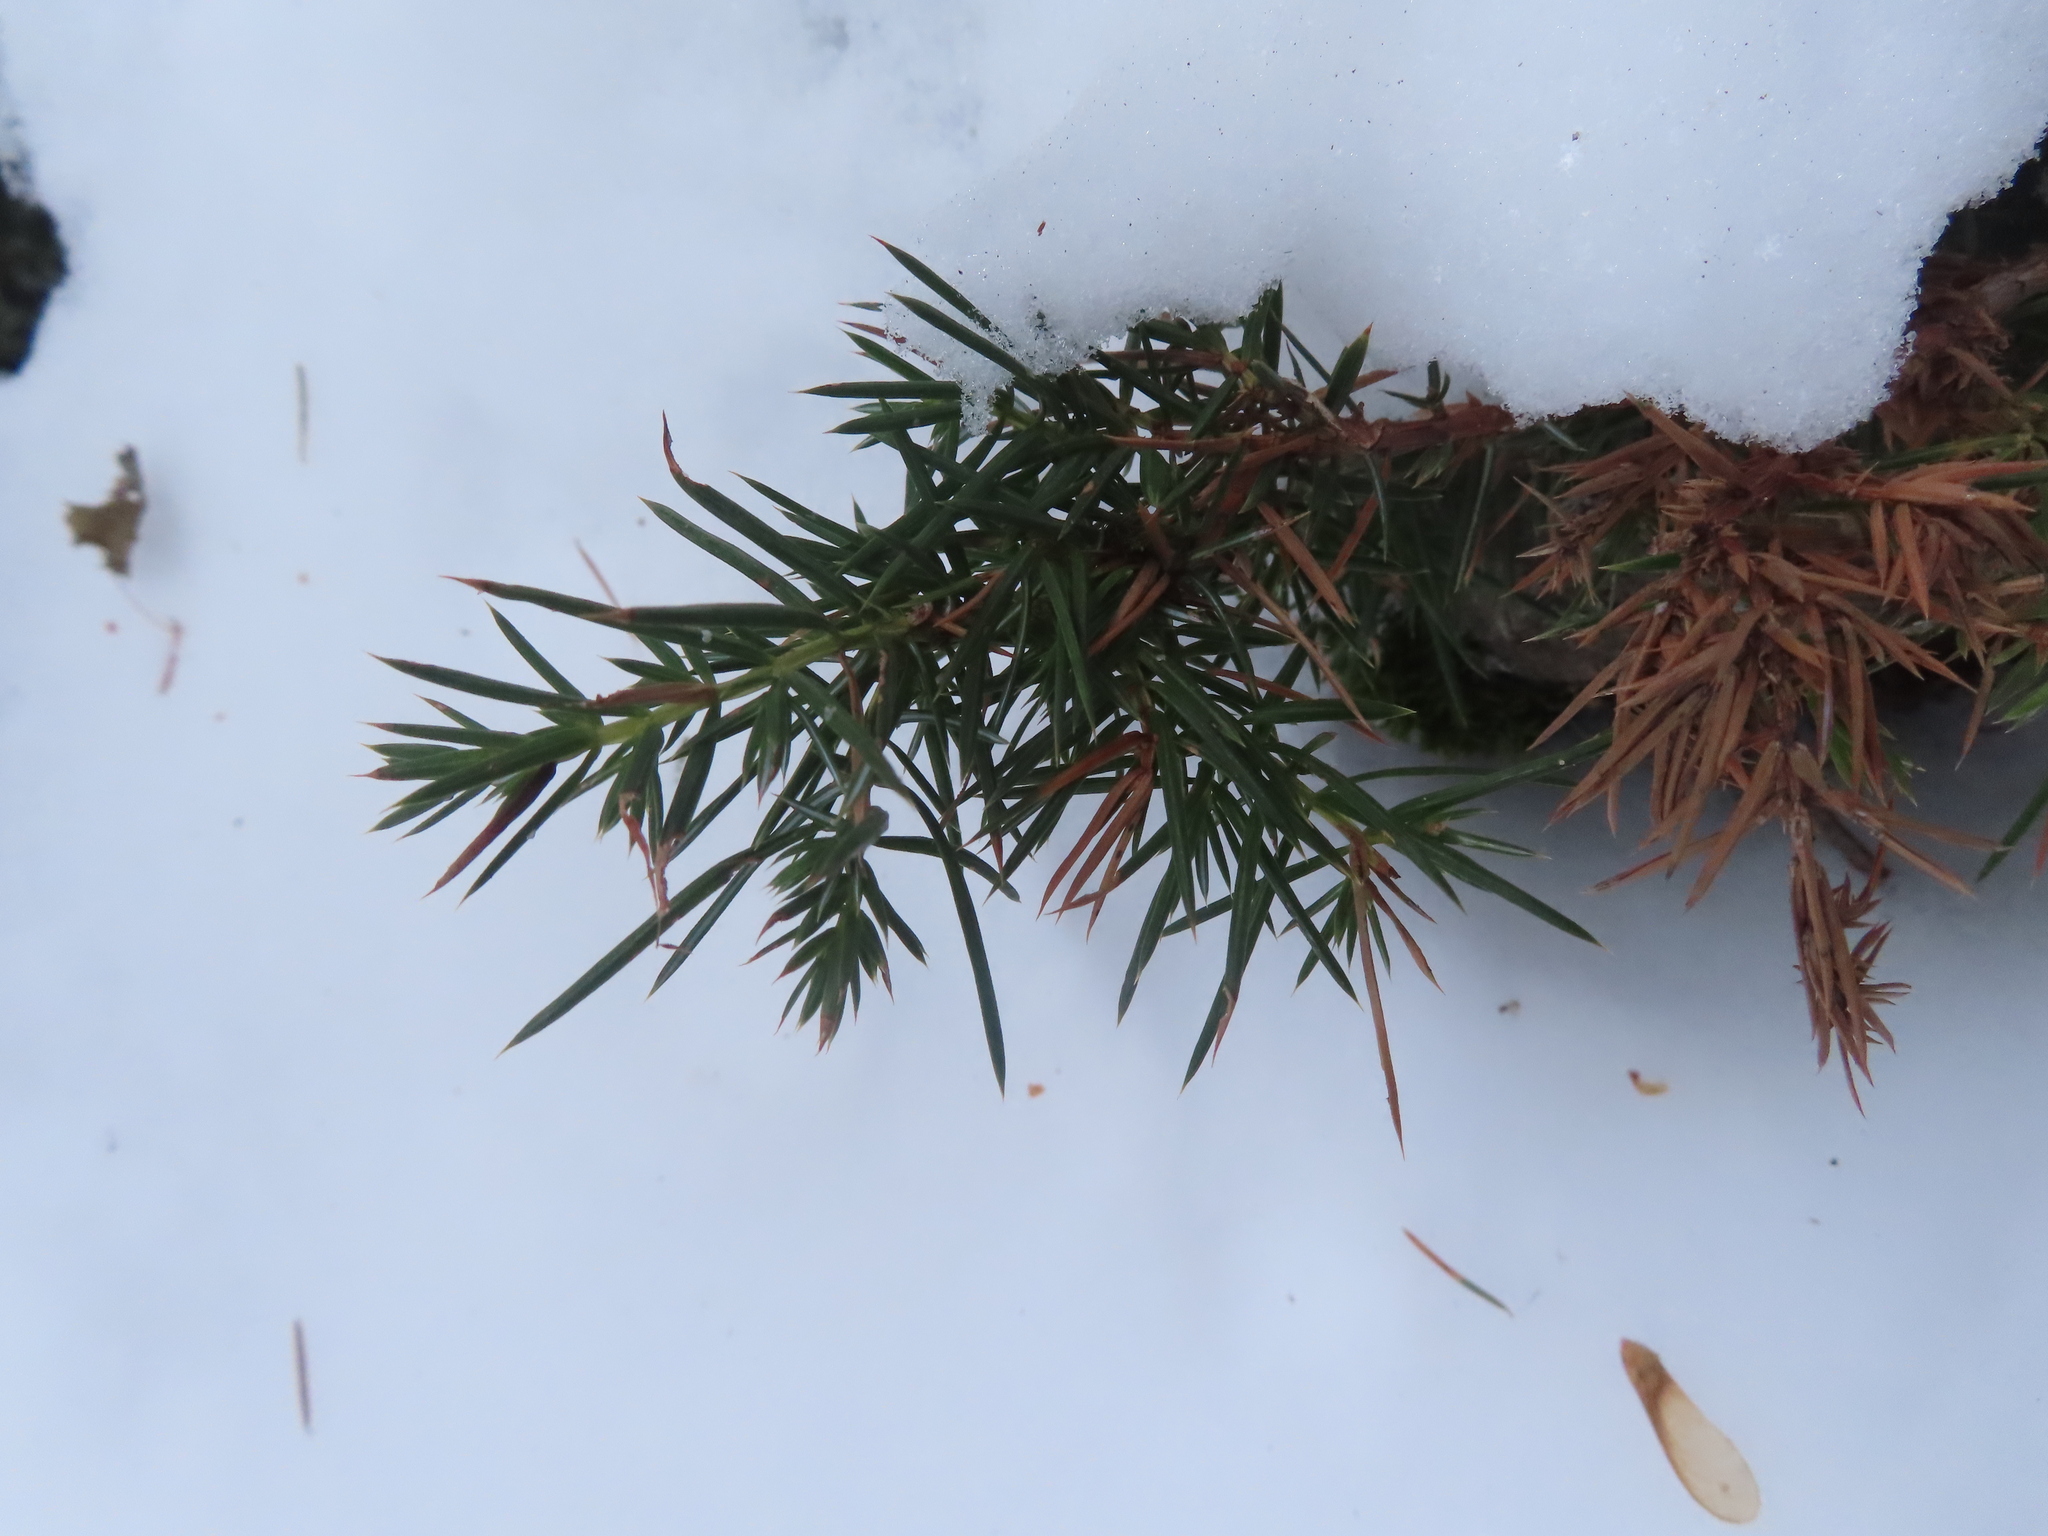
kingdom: Plantae
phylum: Tracheophyta
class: Pinopsida
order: Pinales
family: Cupressaceae
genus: Juniperus
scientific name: Juniperus communis
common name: Common juniper
